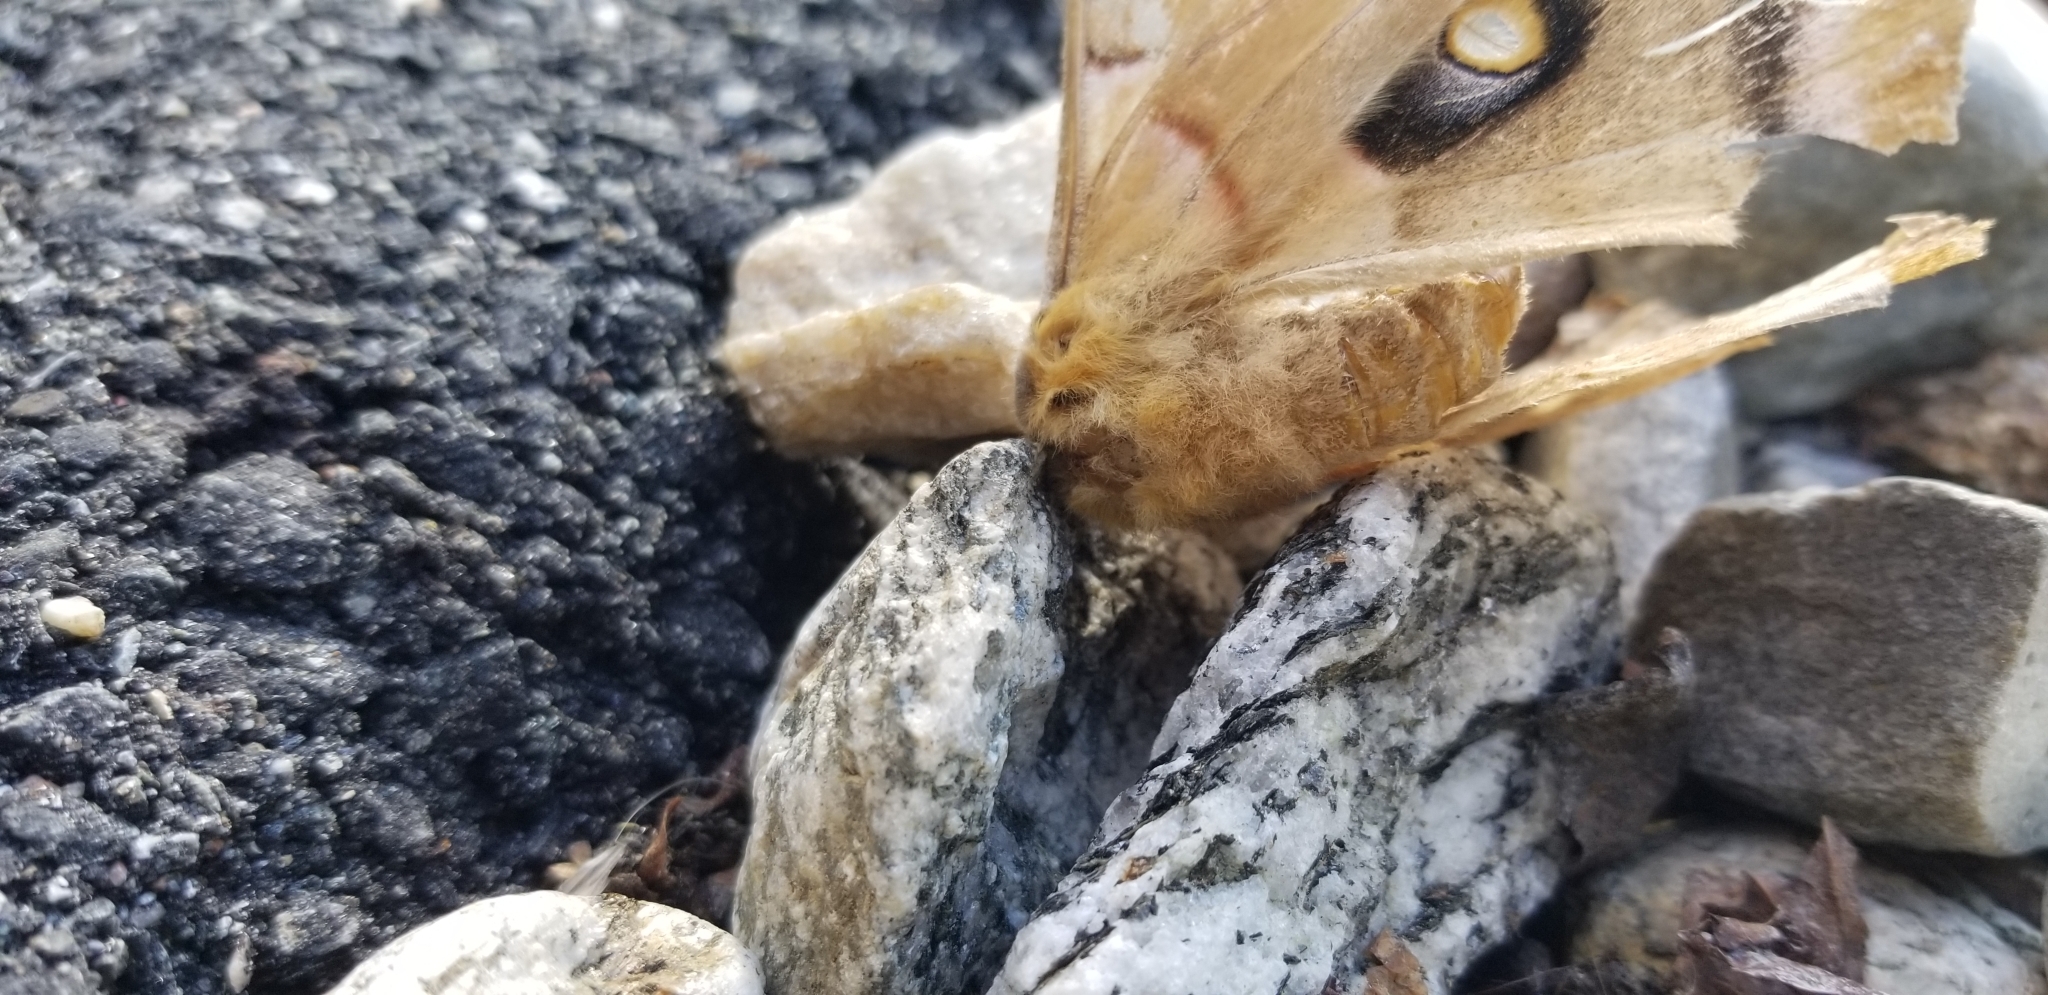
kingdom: Animalia
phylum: Arthropoda
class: Insecta
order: Lepidoptera
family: Saturniidae
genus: Antheraea
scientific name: Antheraea polyphemus
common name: Polyphemus moth
